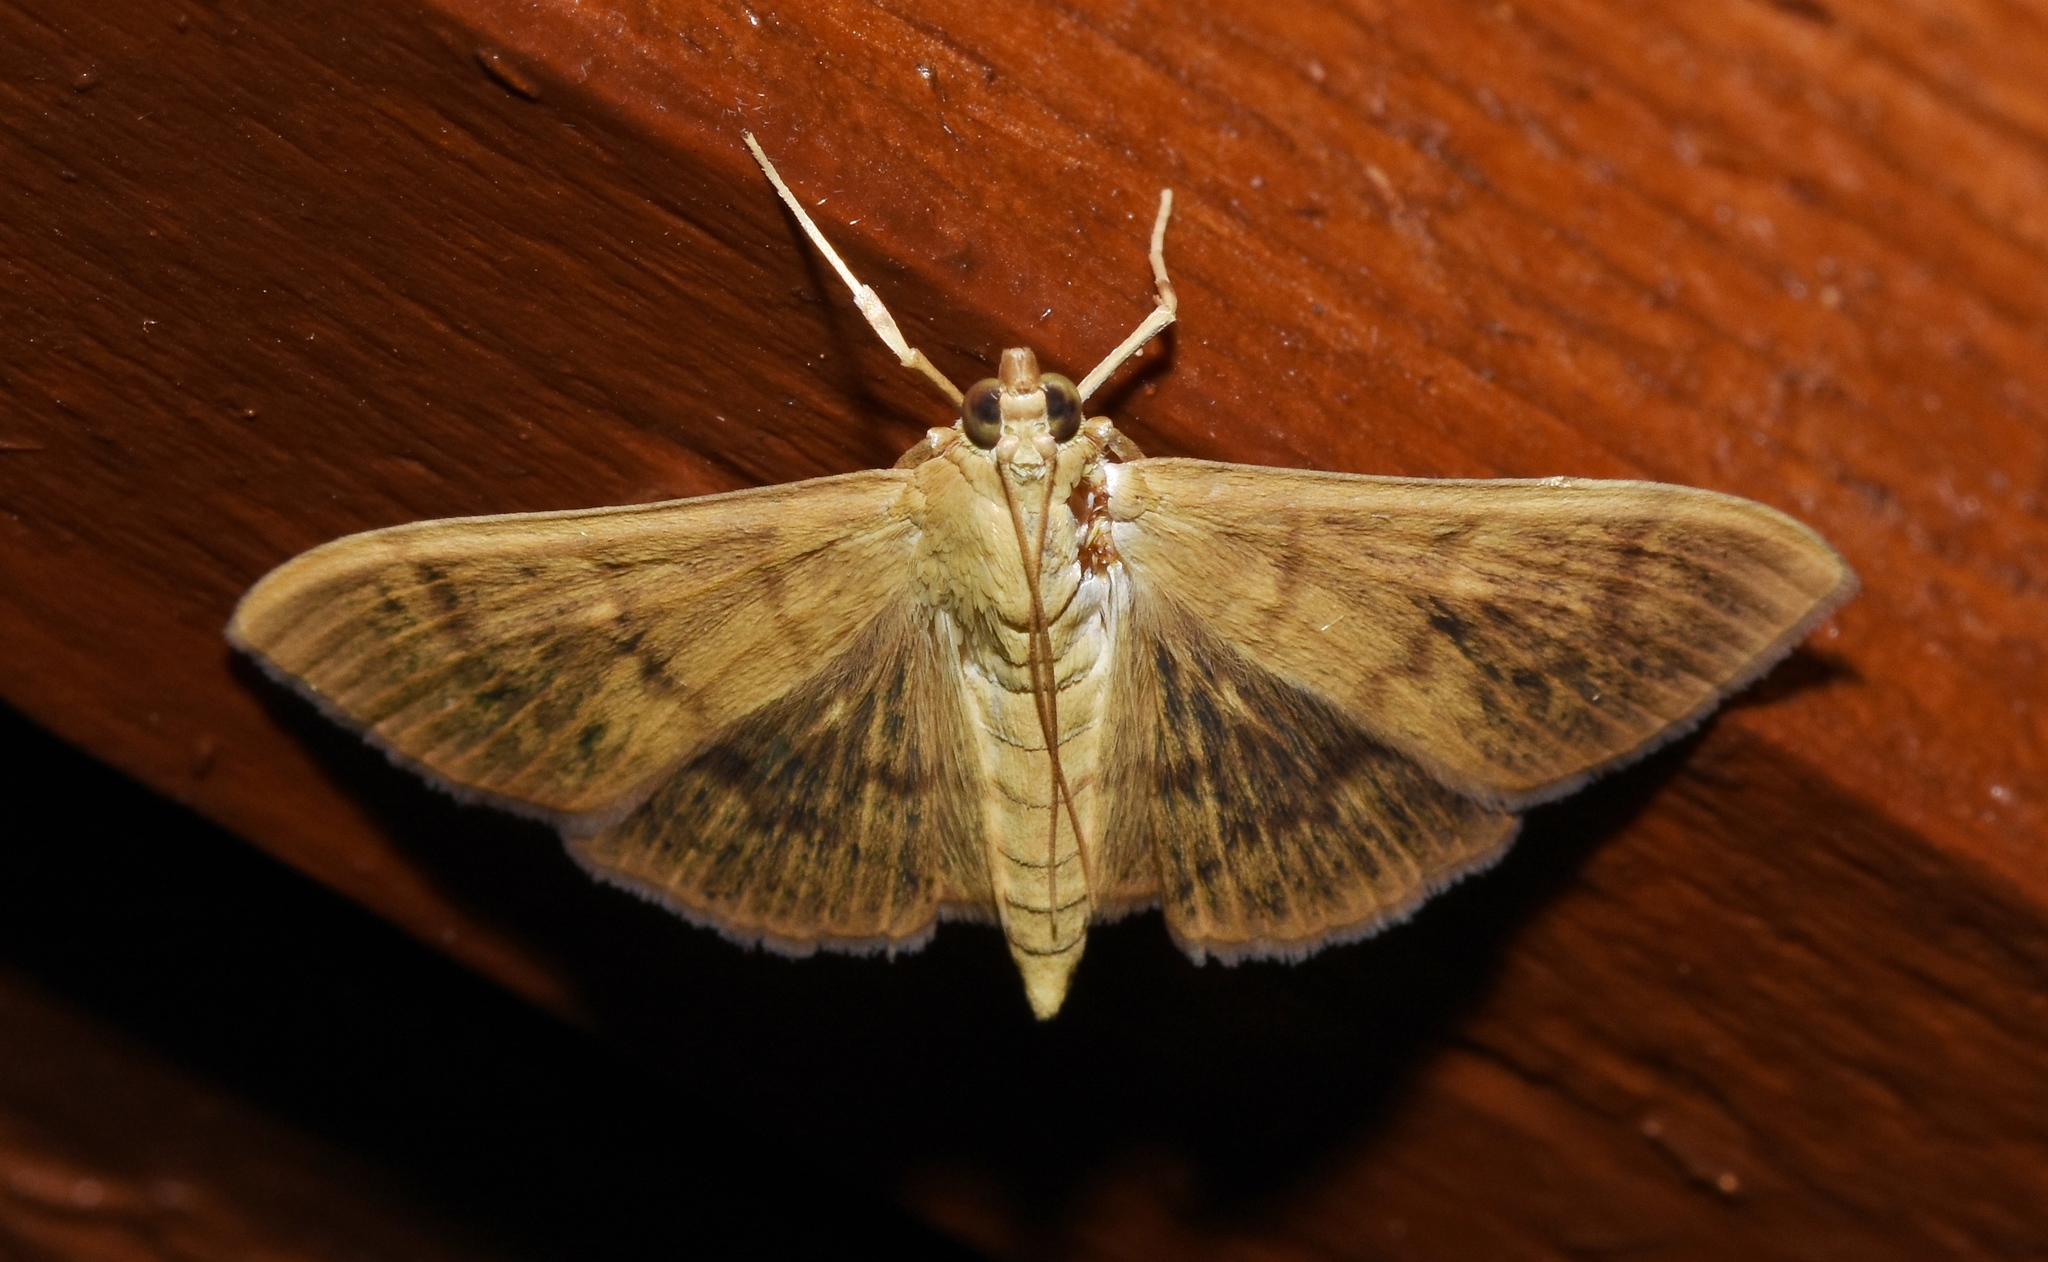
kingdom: Animalia
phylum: Arthropoda
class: Insecta
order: Lepidoptera
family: Crambidae
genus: Pleuroptya
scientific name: Pleuroptya silicalis
